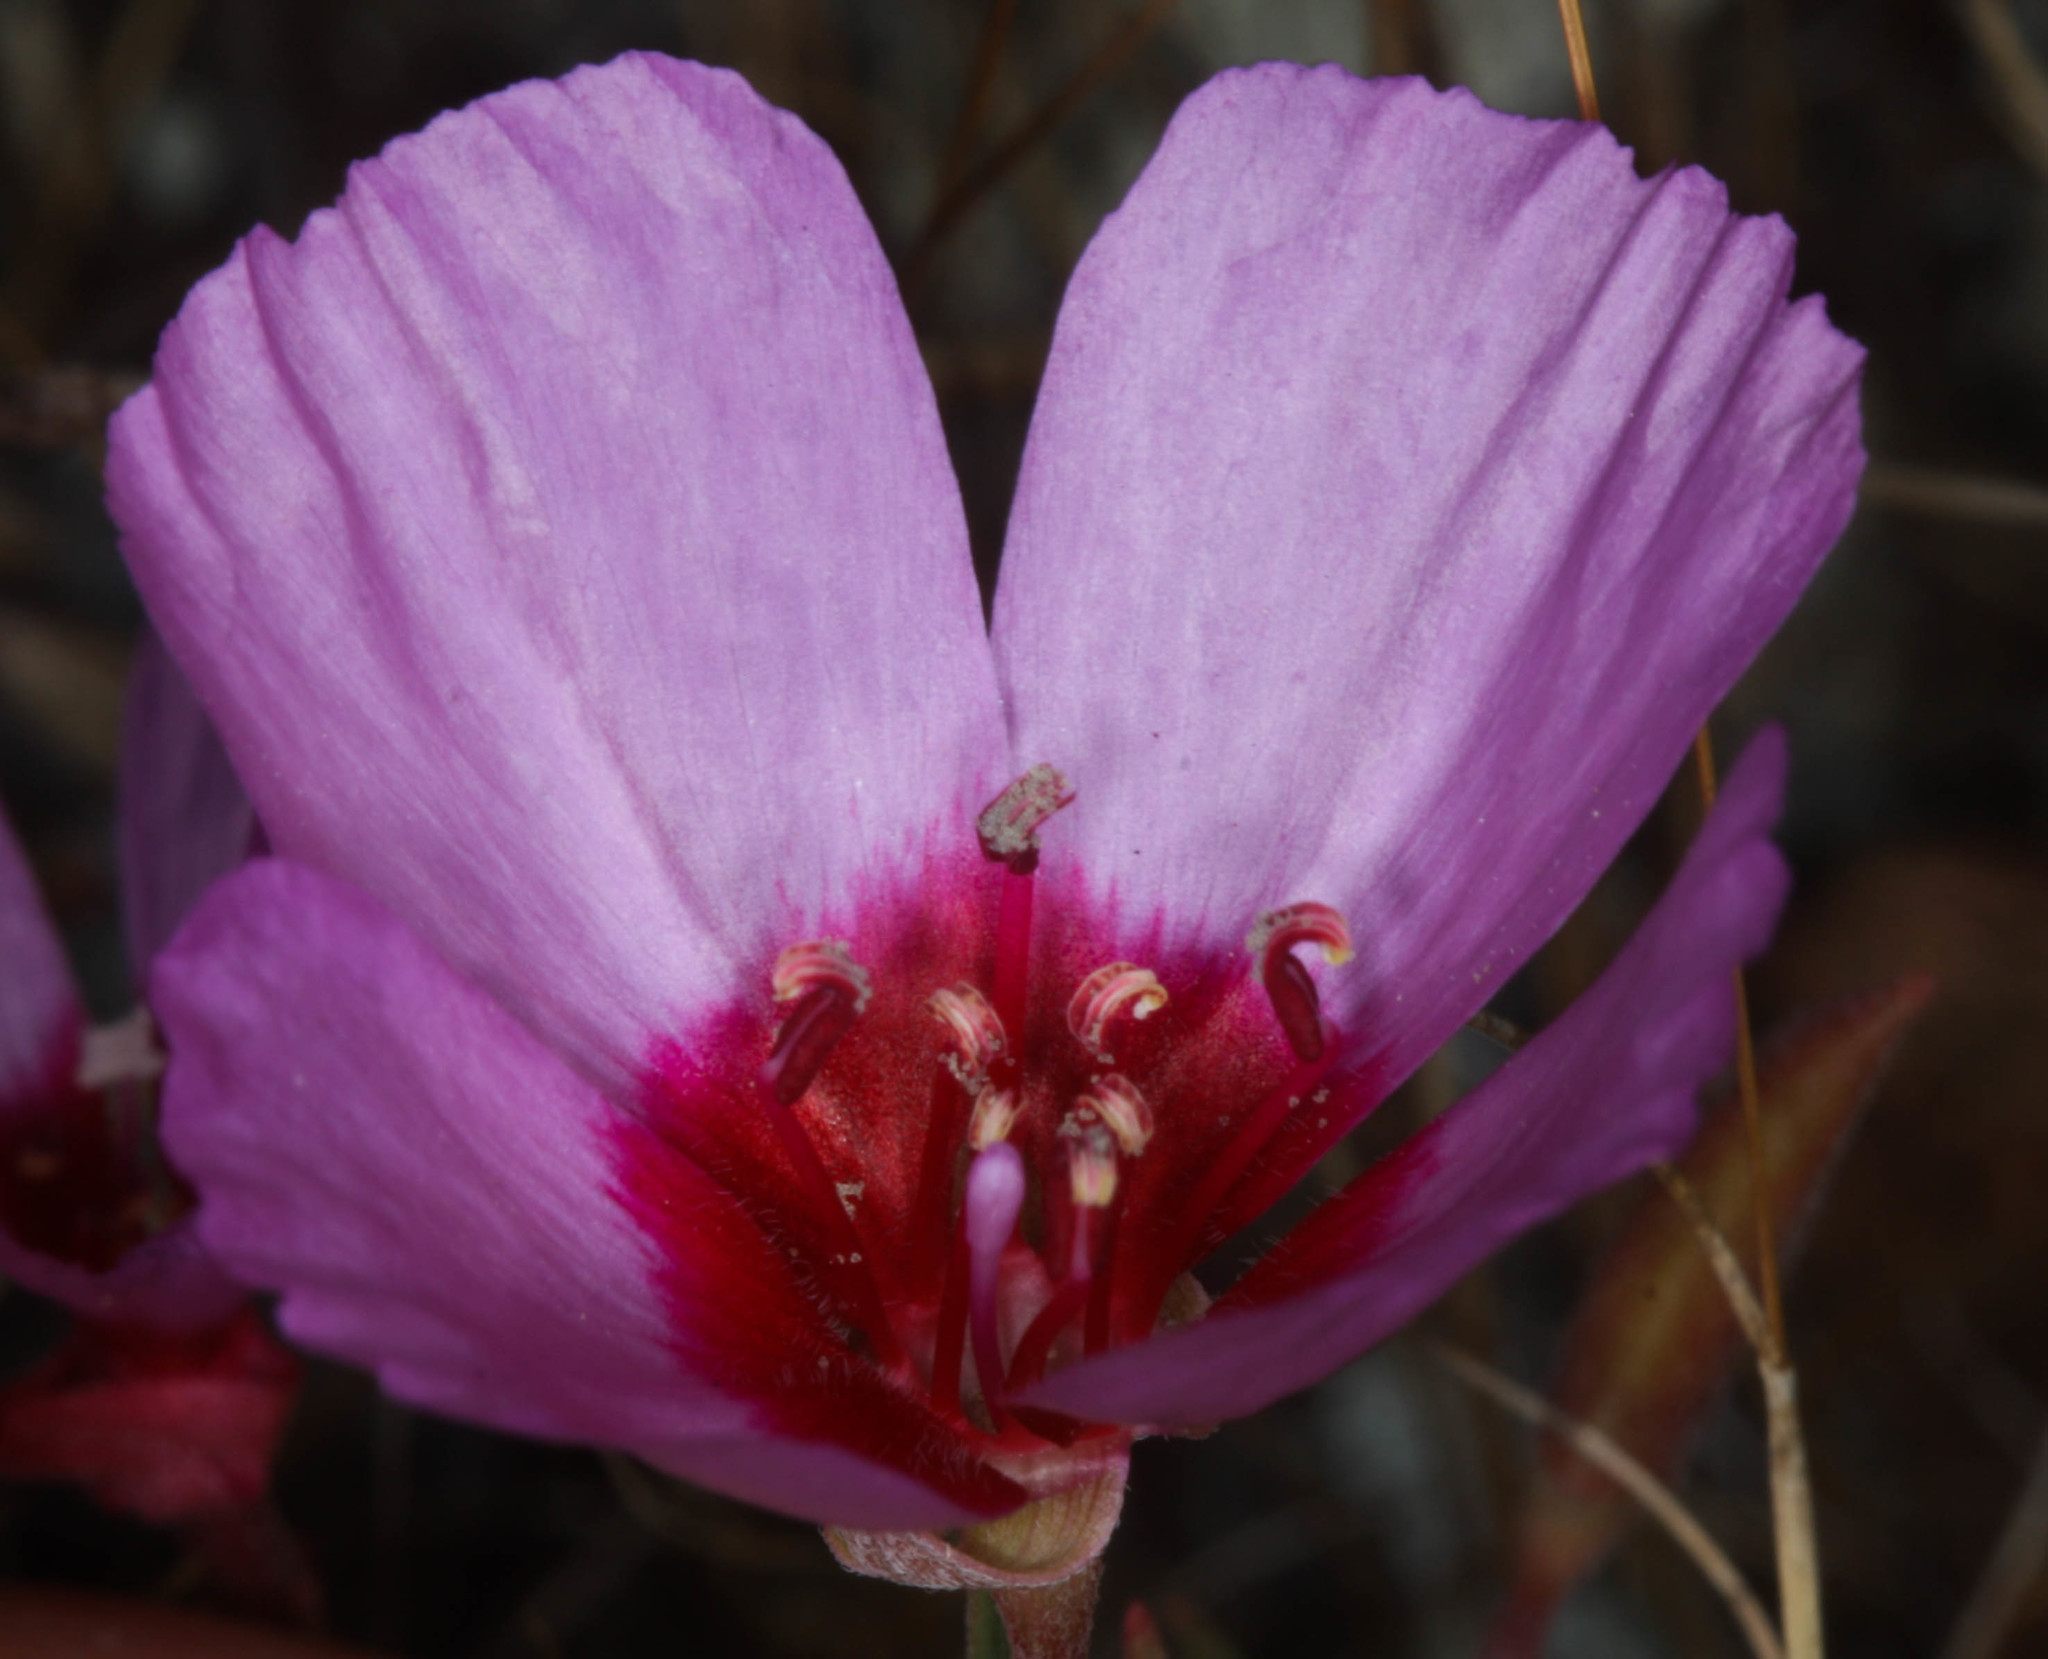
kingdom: Plantae
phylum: Tracheophyta
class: Magnoliopsida
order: Myrtales
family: Onagraceae
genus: Clarkia
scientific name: Clarkia rubicunda
